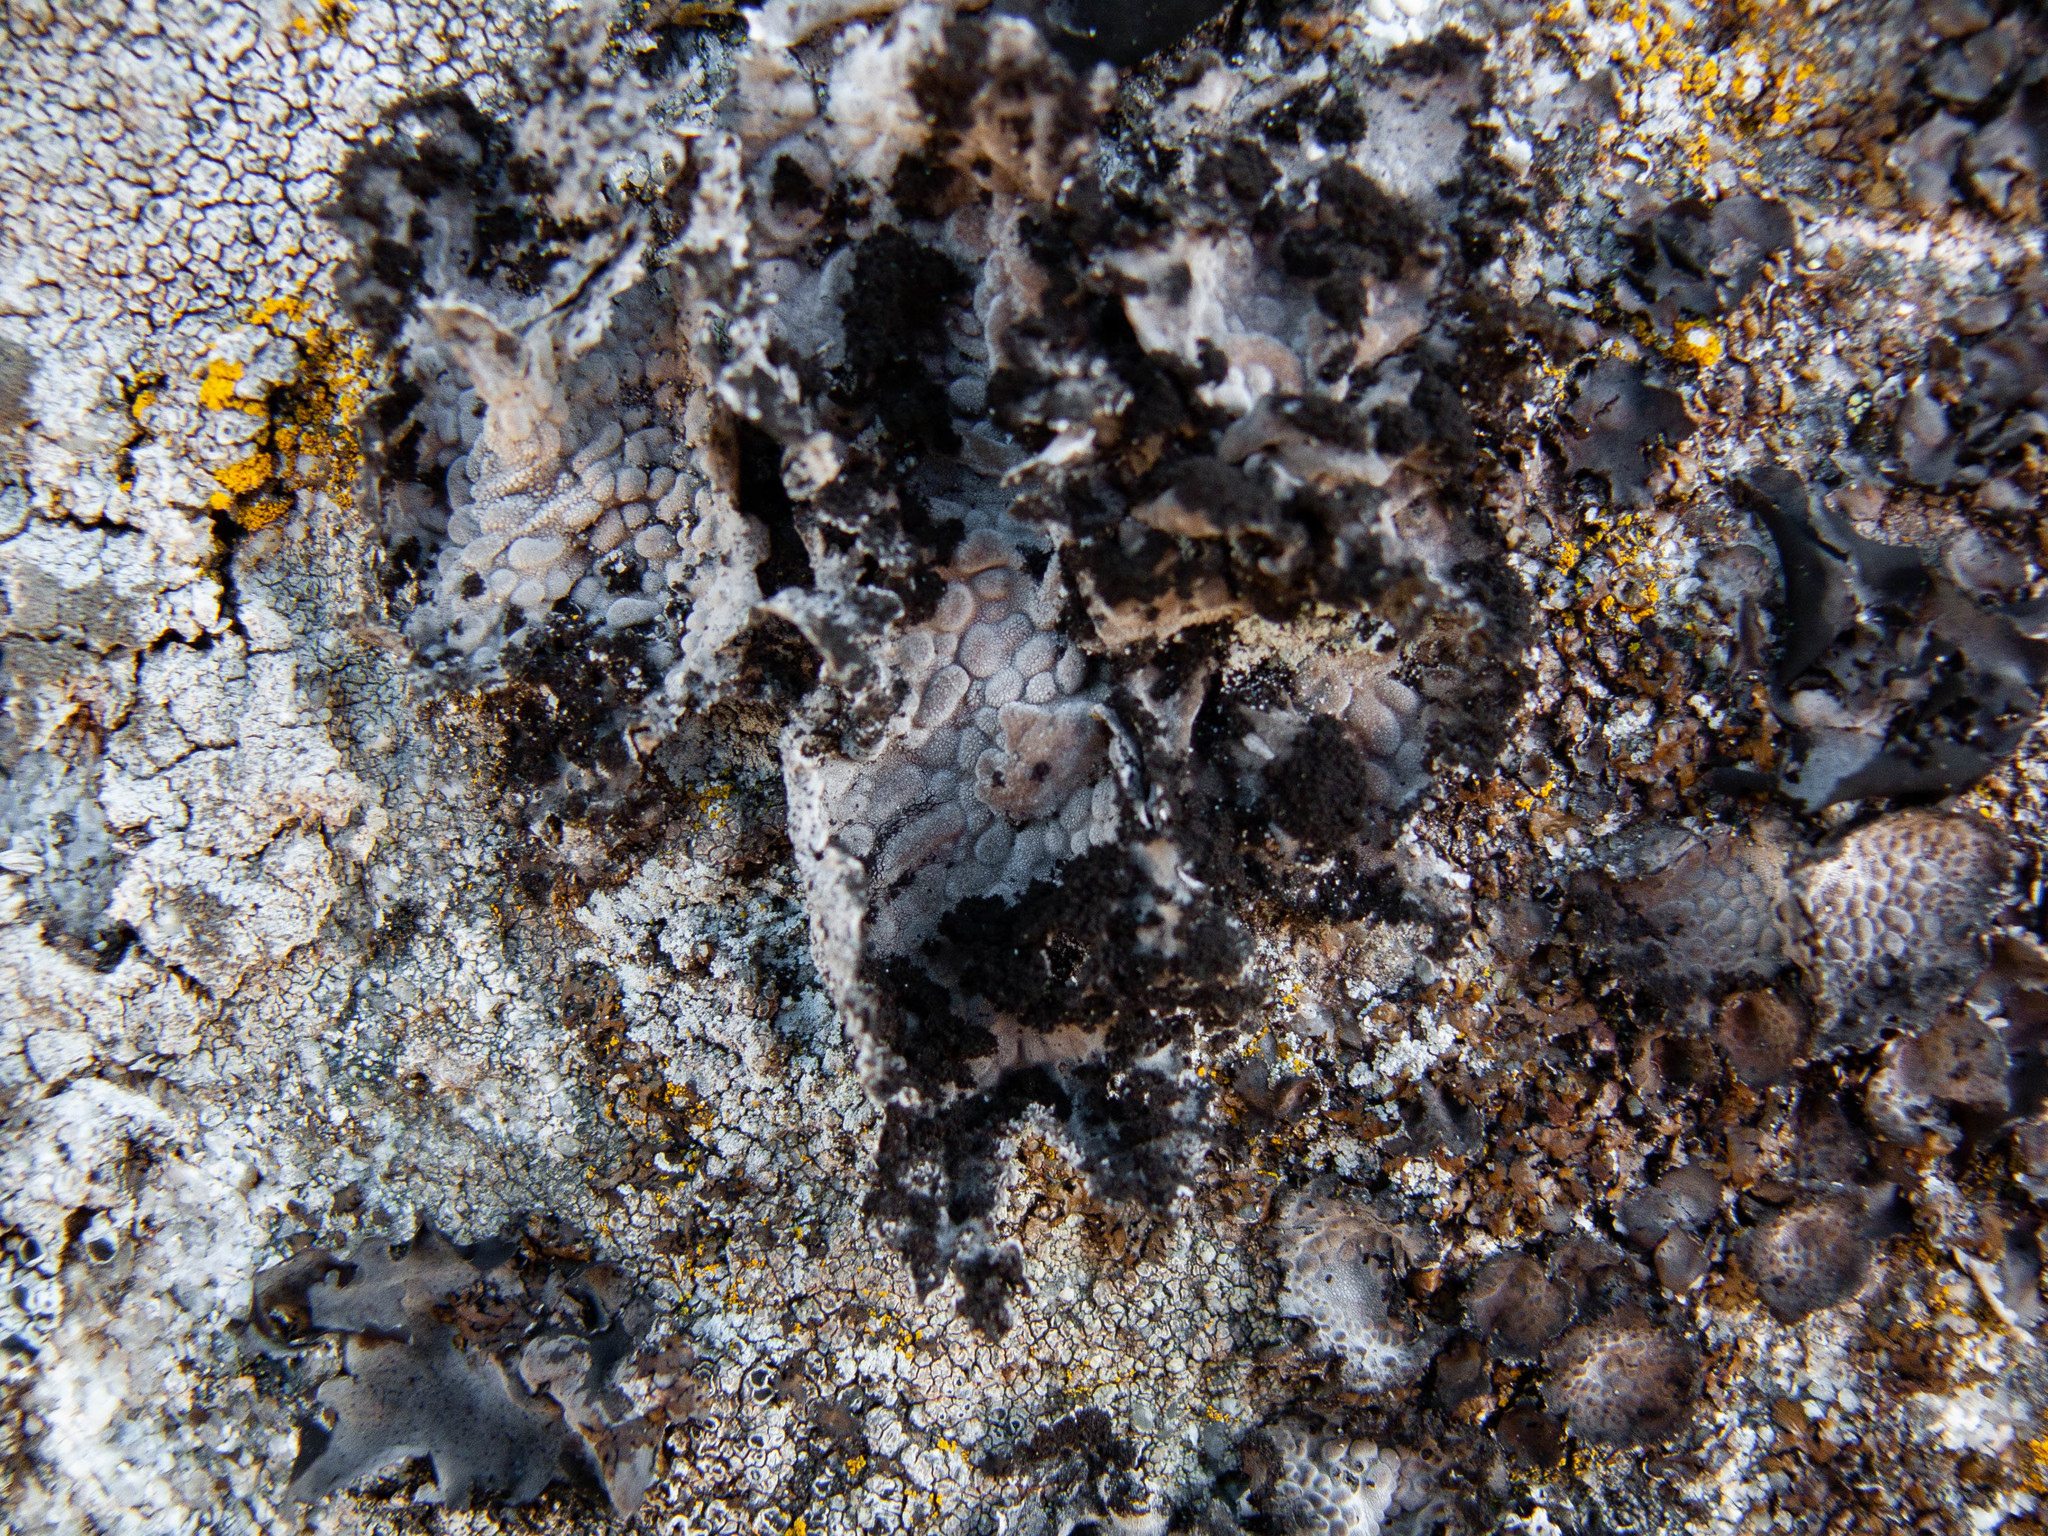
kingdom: Fungi
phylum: Ascomycota
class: Lecanoromycetes
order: Umbilicariales
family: Umbilicariaceae
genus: Lasallia
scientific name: Lasallia pustulata
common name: Blistered toadskin lichen
